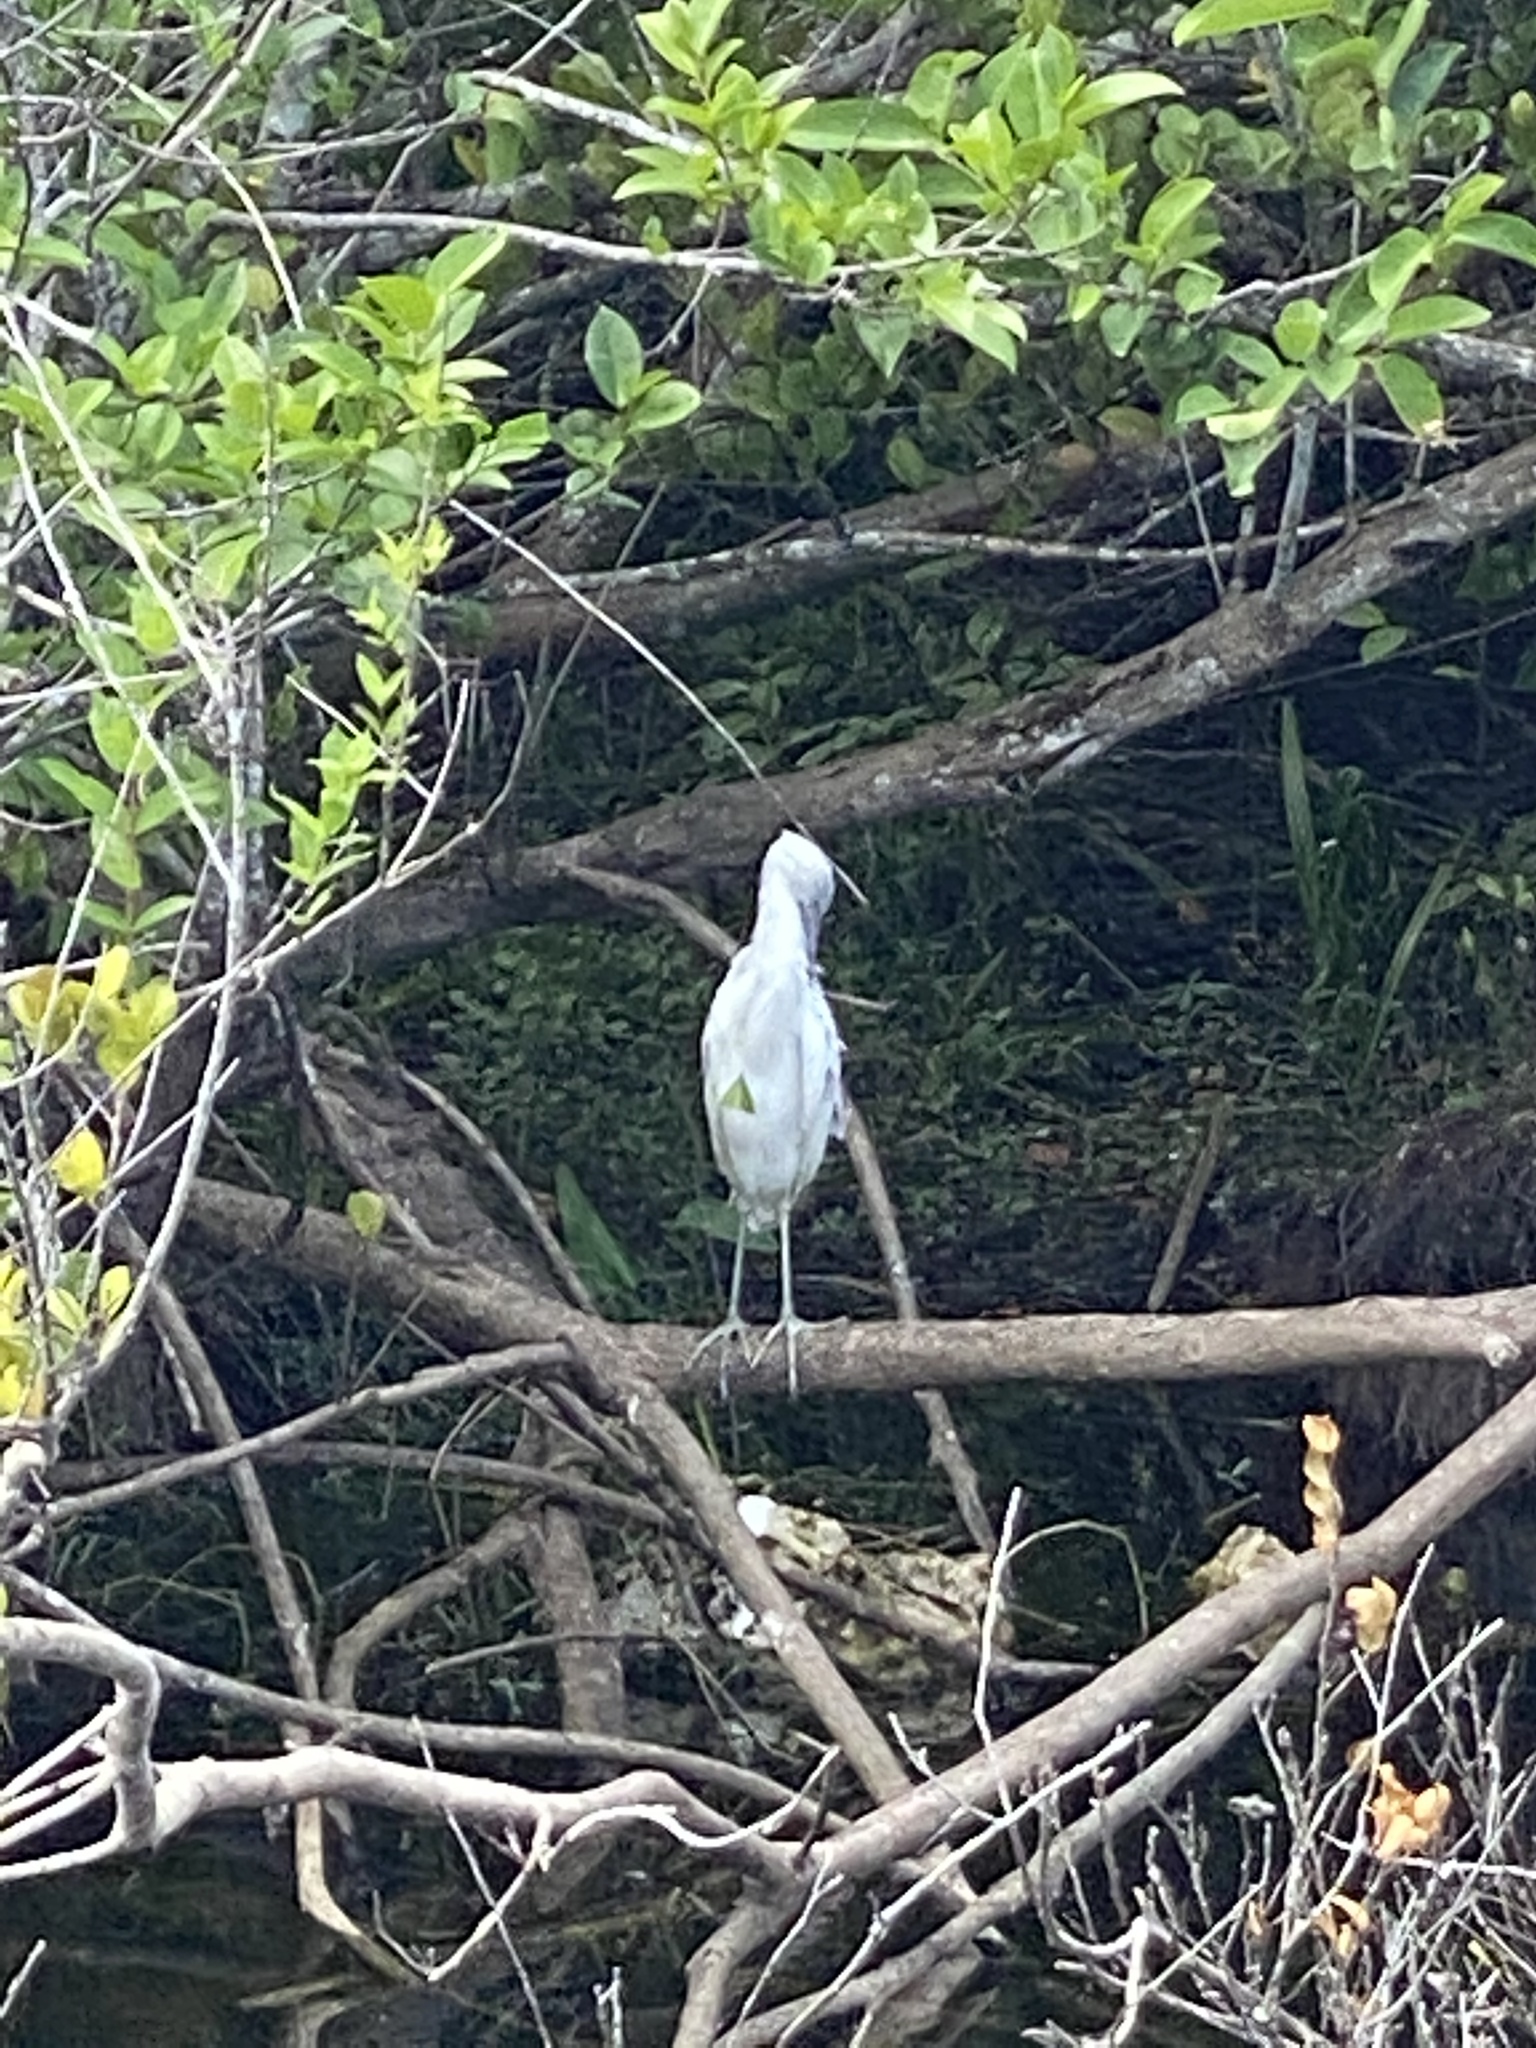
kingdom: Animalia
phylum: Chordata
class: Aves
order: Pelecaniformes
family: Ardeidae
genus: Egretta
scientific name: Egretta caerulea
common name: Little blue heron
